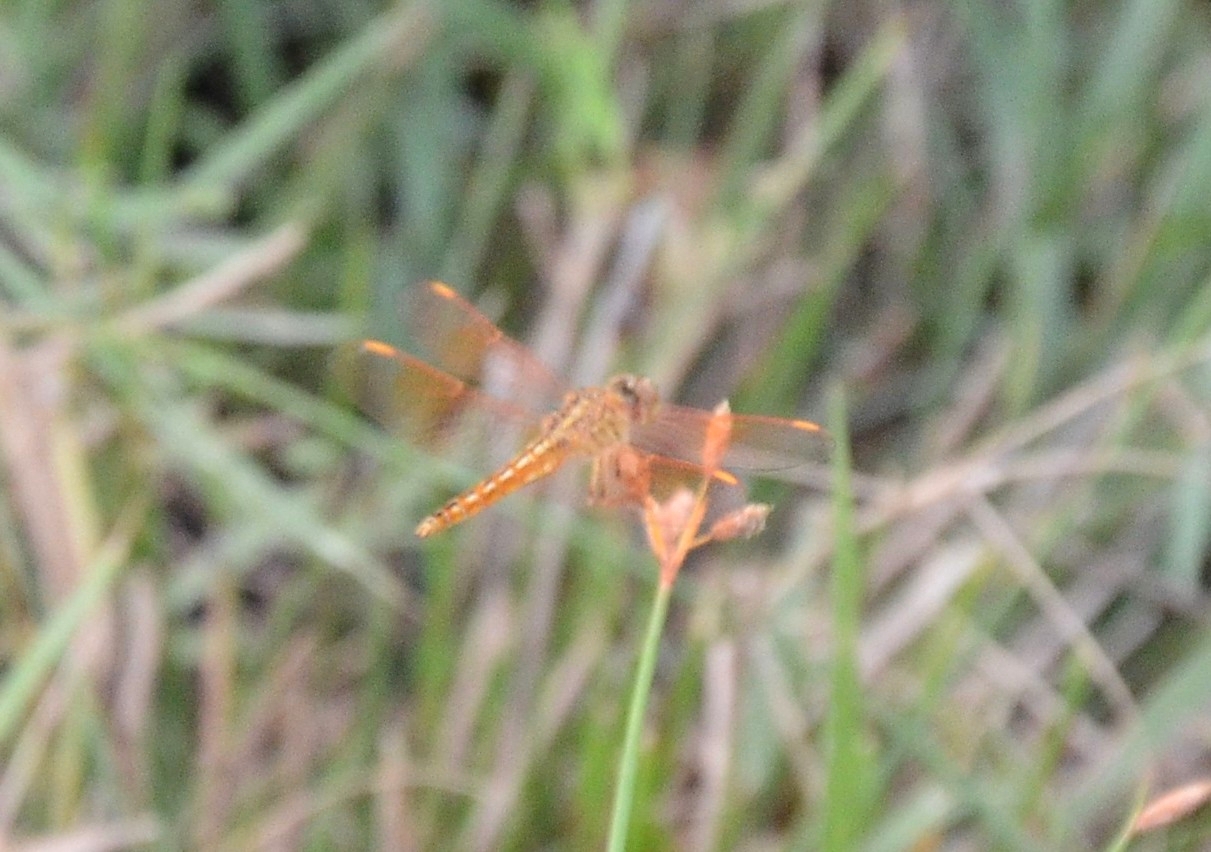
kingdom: Animalia
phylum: Arthropoda
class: Insecta
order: Odonata
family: Libellulidae
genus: Brachythemis
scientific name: Brachythemis contaminata
